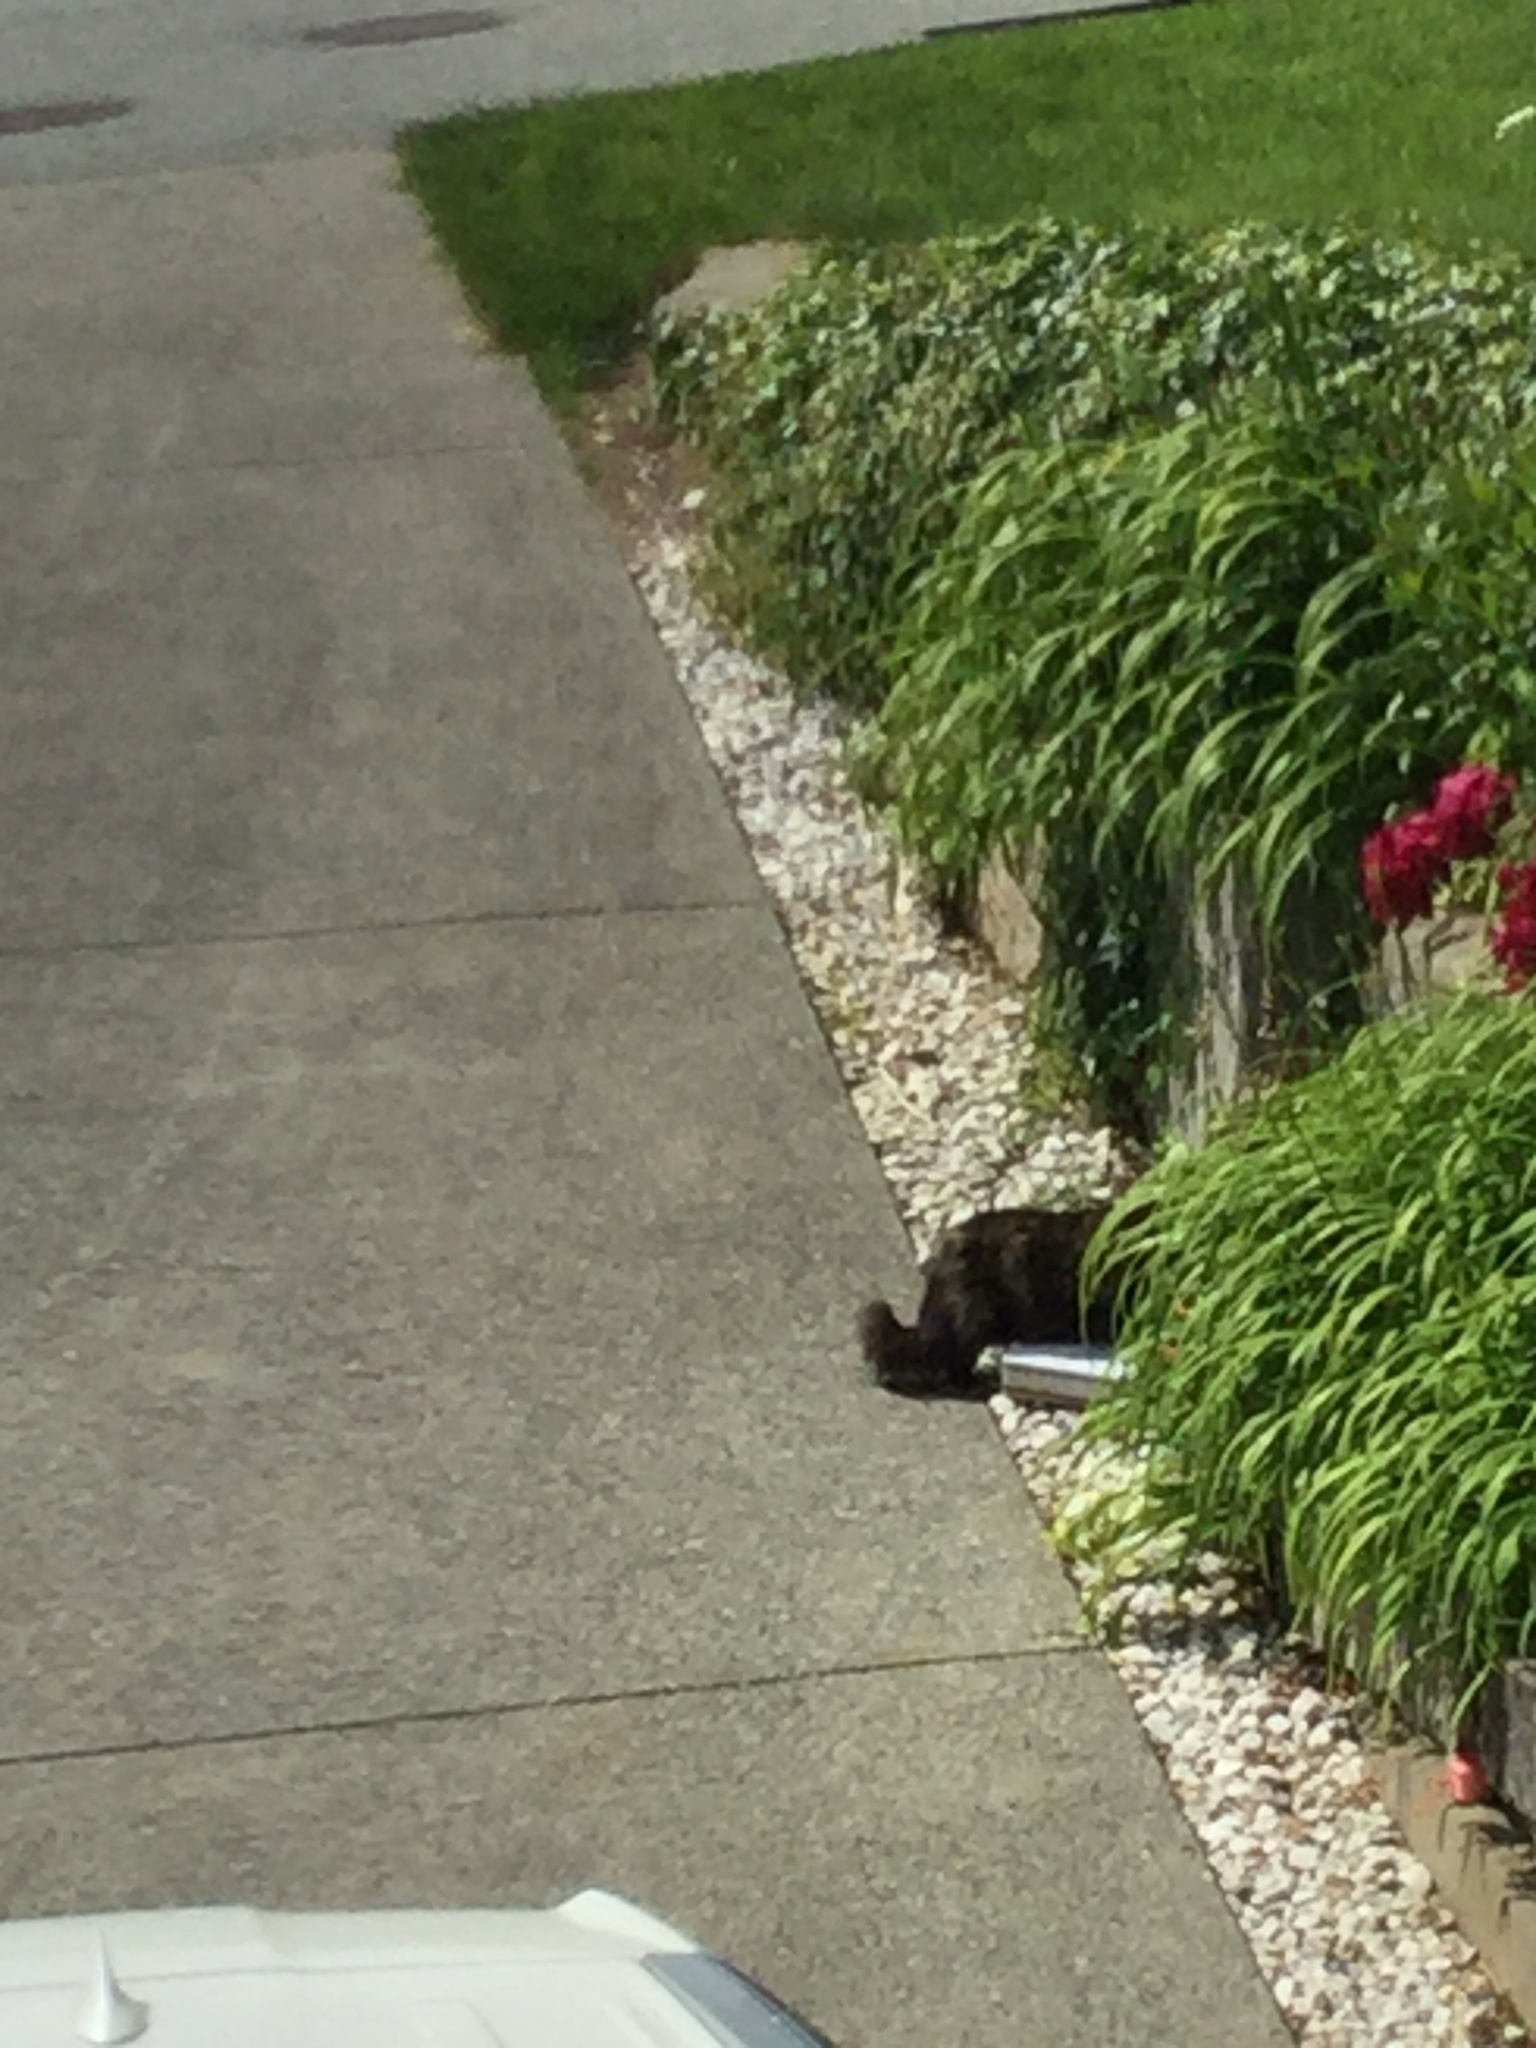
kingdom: Animalia
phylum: Chordata
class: Mammalia
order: Carnivora
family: Felidae
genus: Felis
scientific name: Felis catus
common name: Domestic cat
